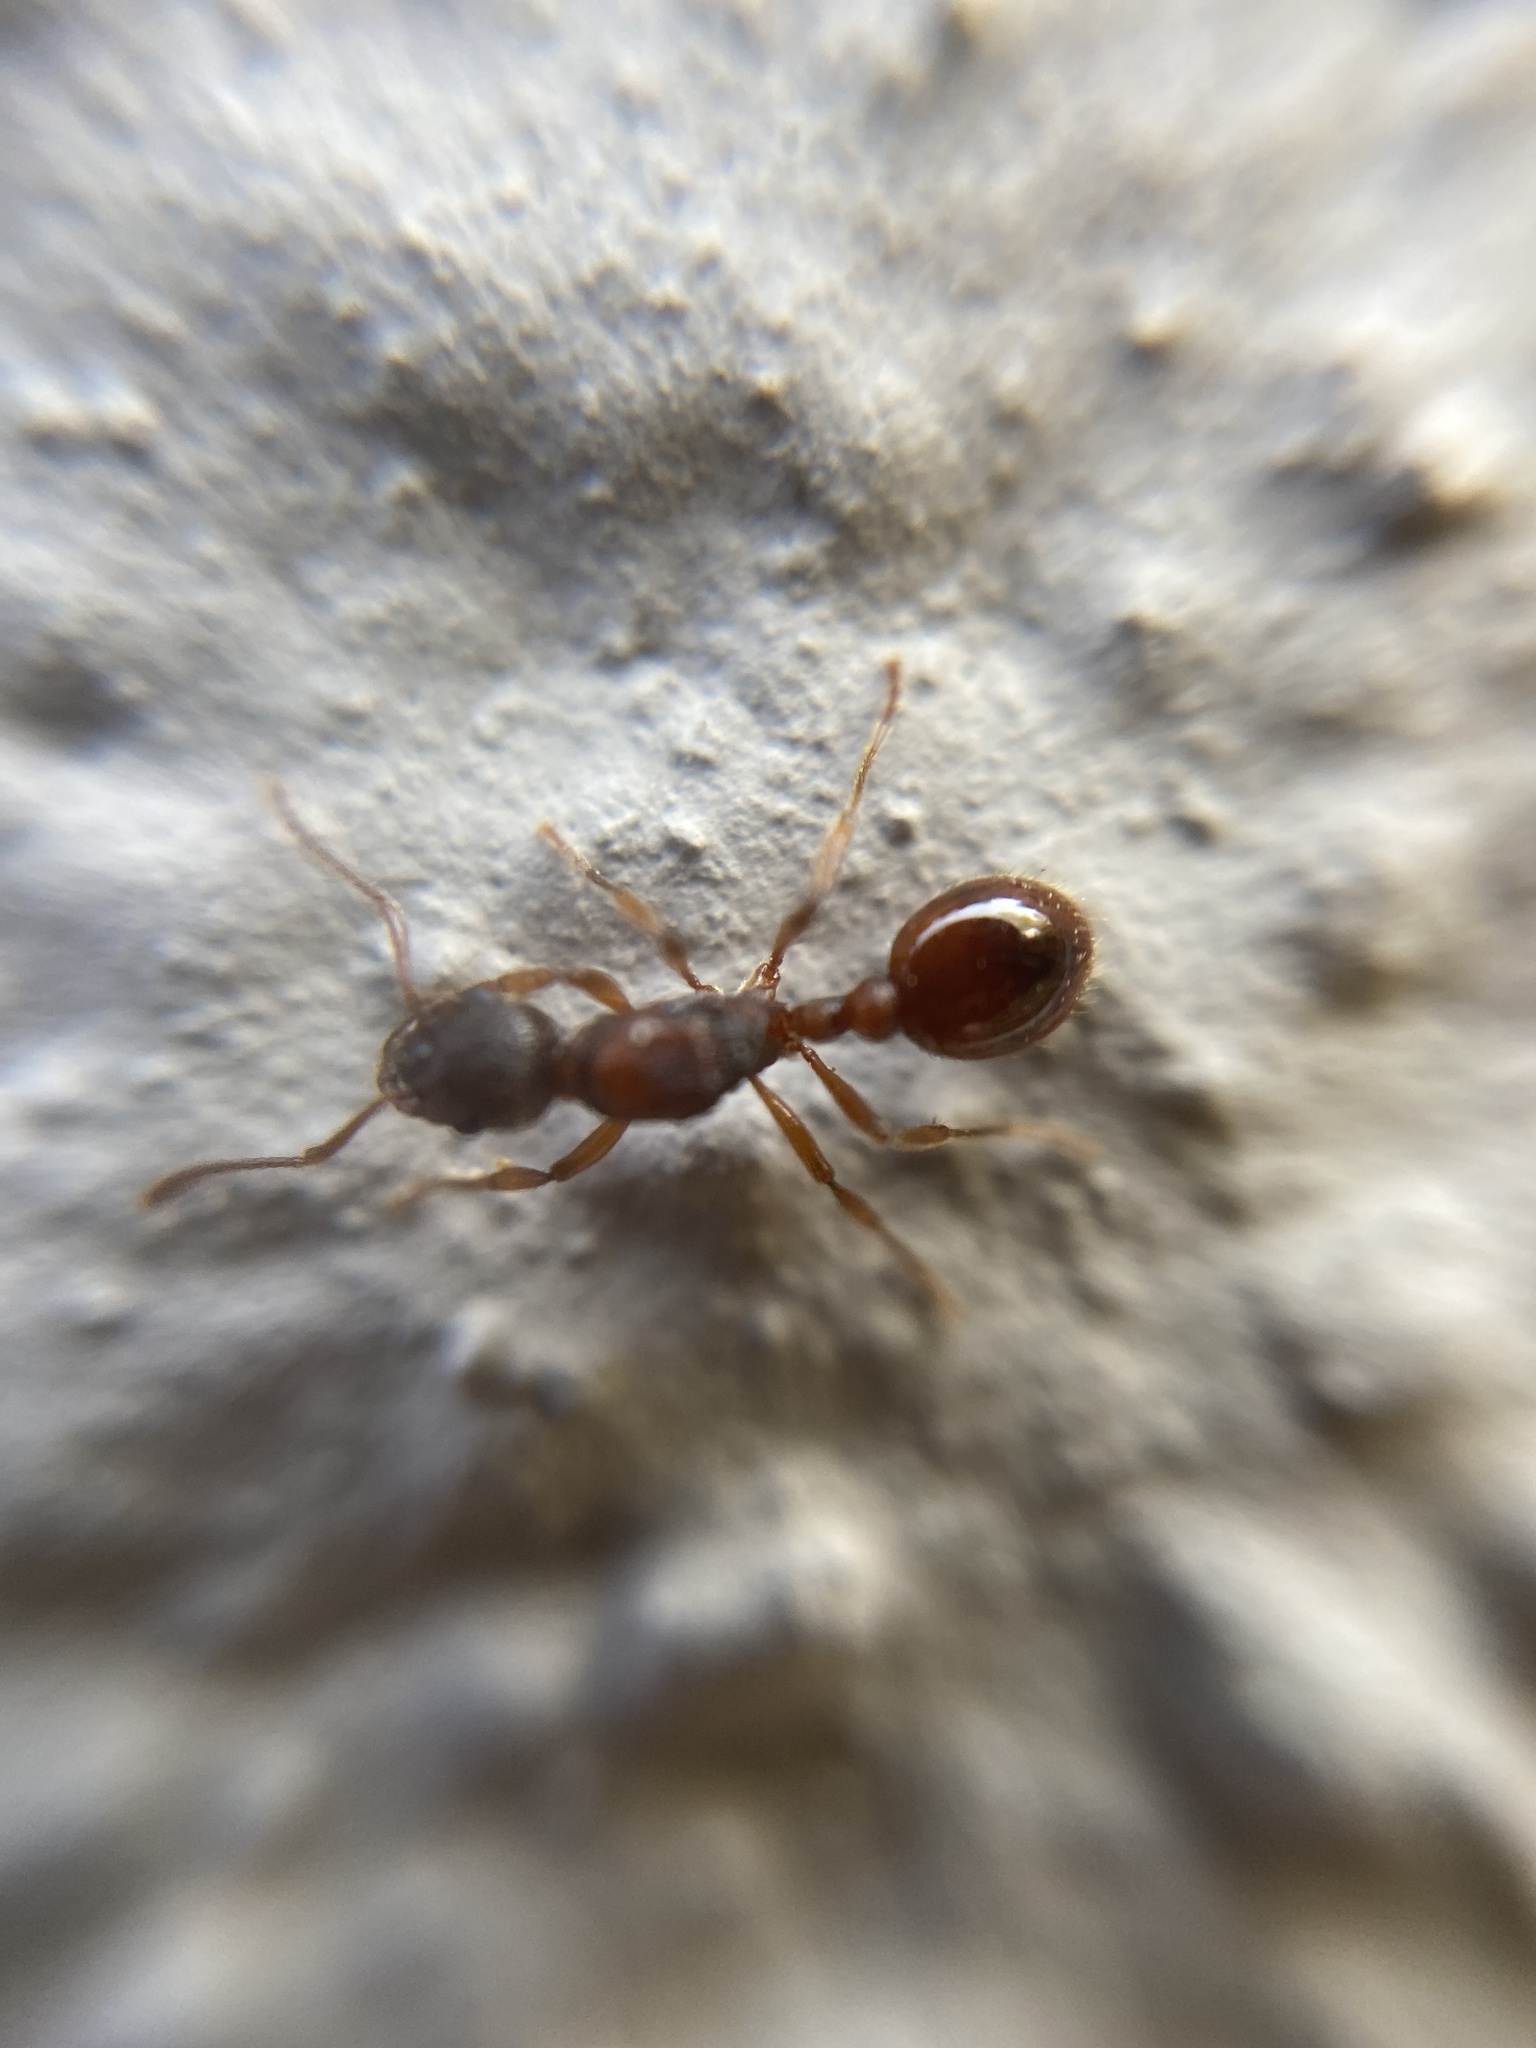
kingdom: Animalia
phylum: Arthropoda
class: Insecta
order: Hymenoptera
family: Formicidae
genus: Myrmica
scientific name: Myrmica rubra
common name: European fire ant
